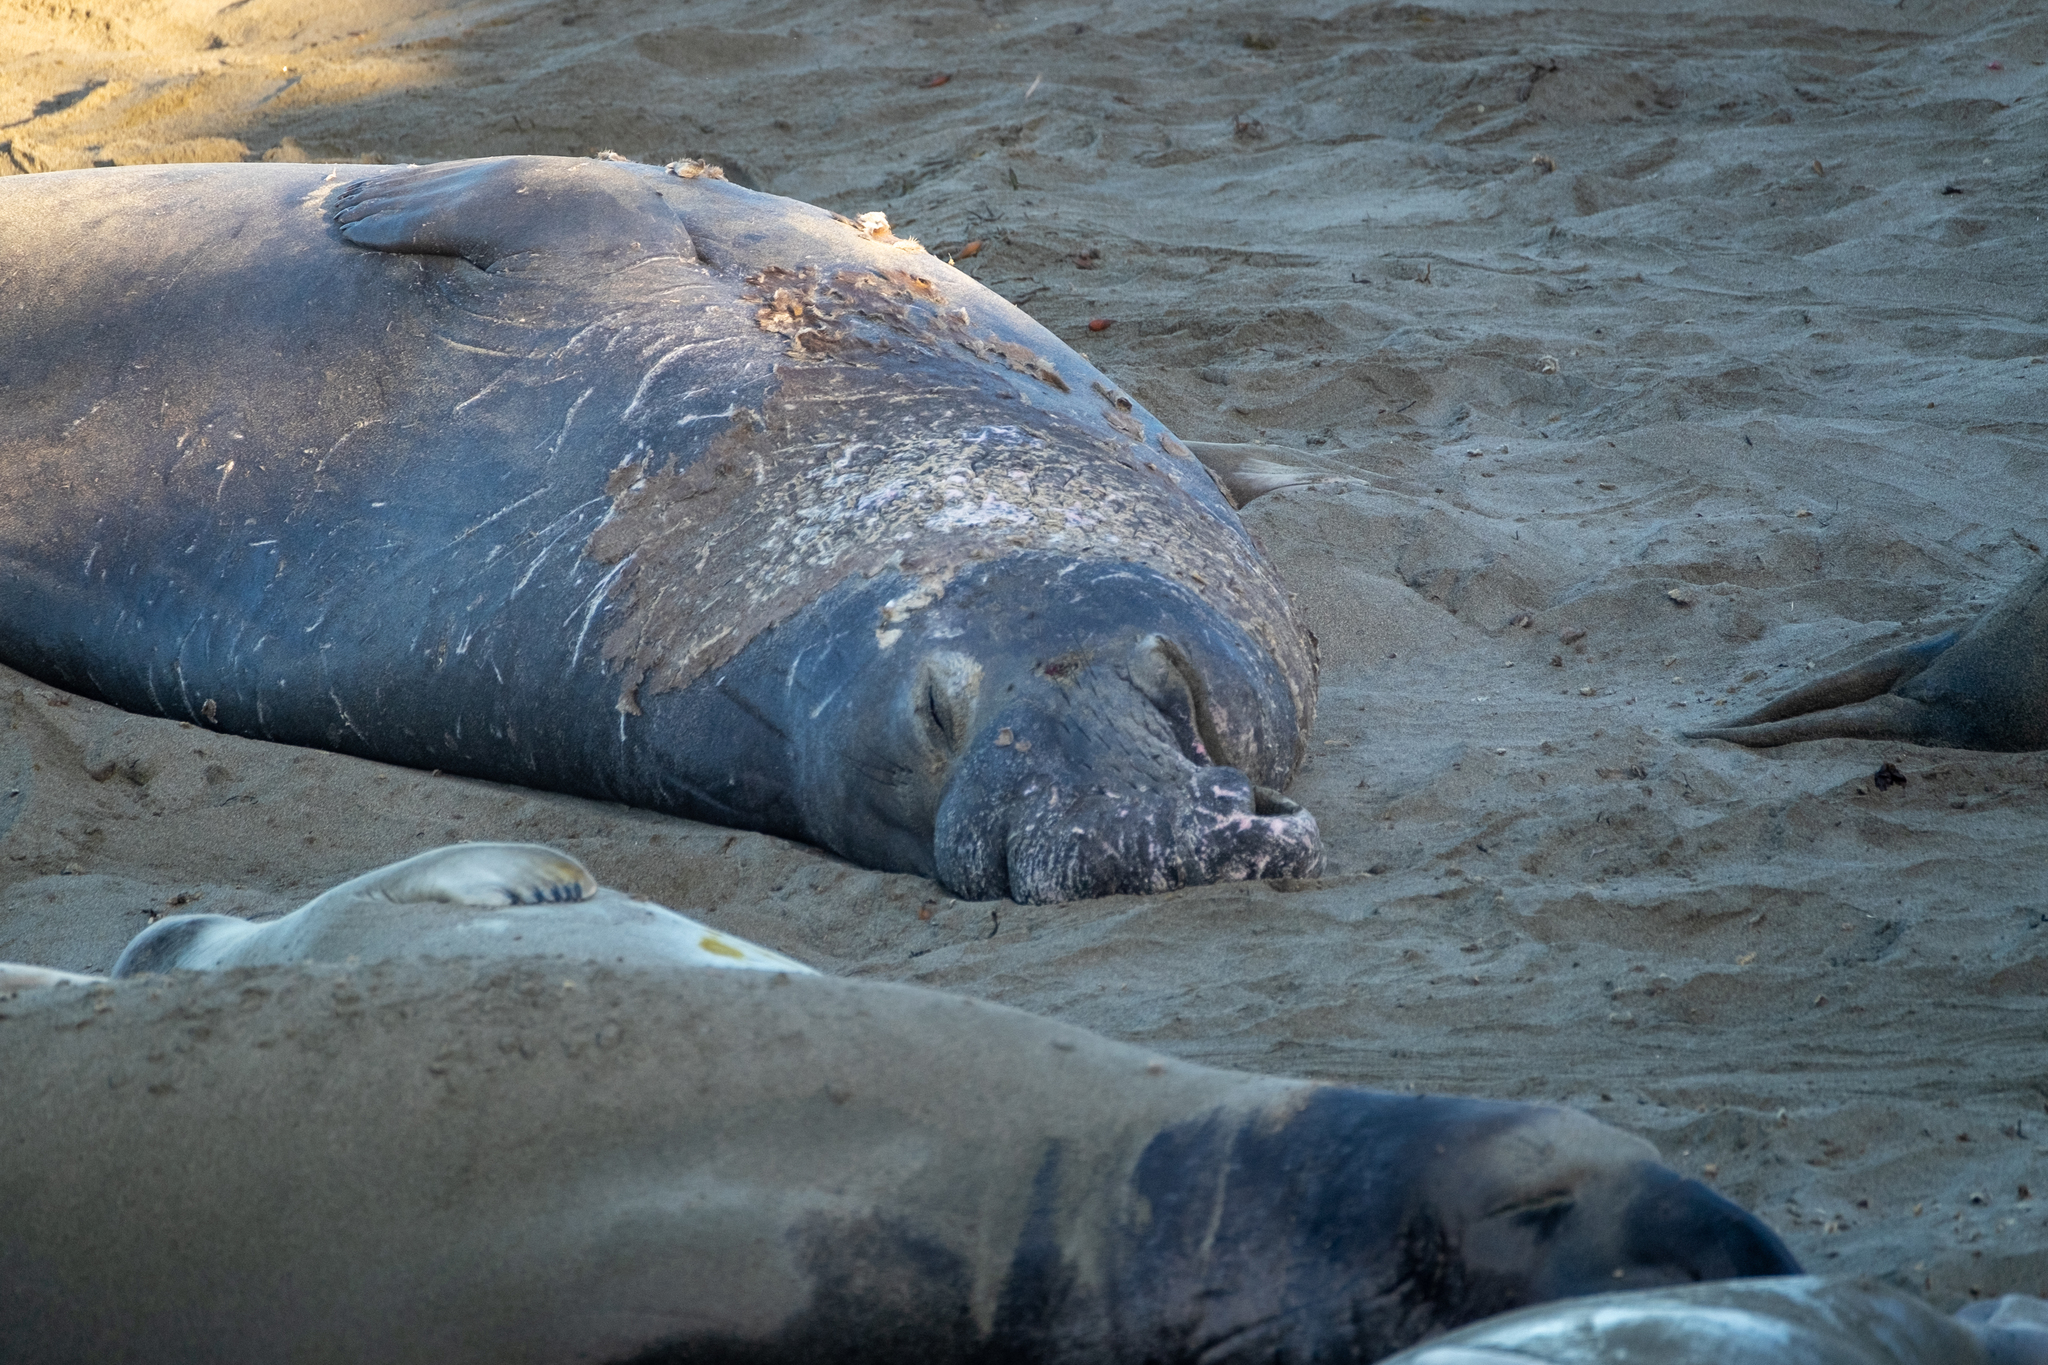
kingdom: Animalia
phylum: Chordata
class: Mammalia
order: Carnivora
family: Phocidae
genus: Mirounga
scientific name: Mirounga angustirostris
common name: Northern elephant seal
